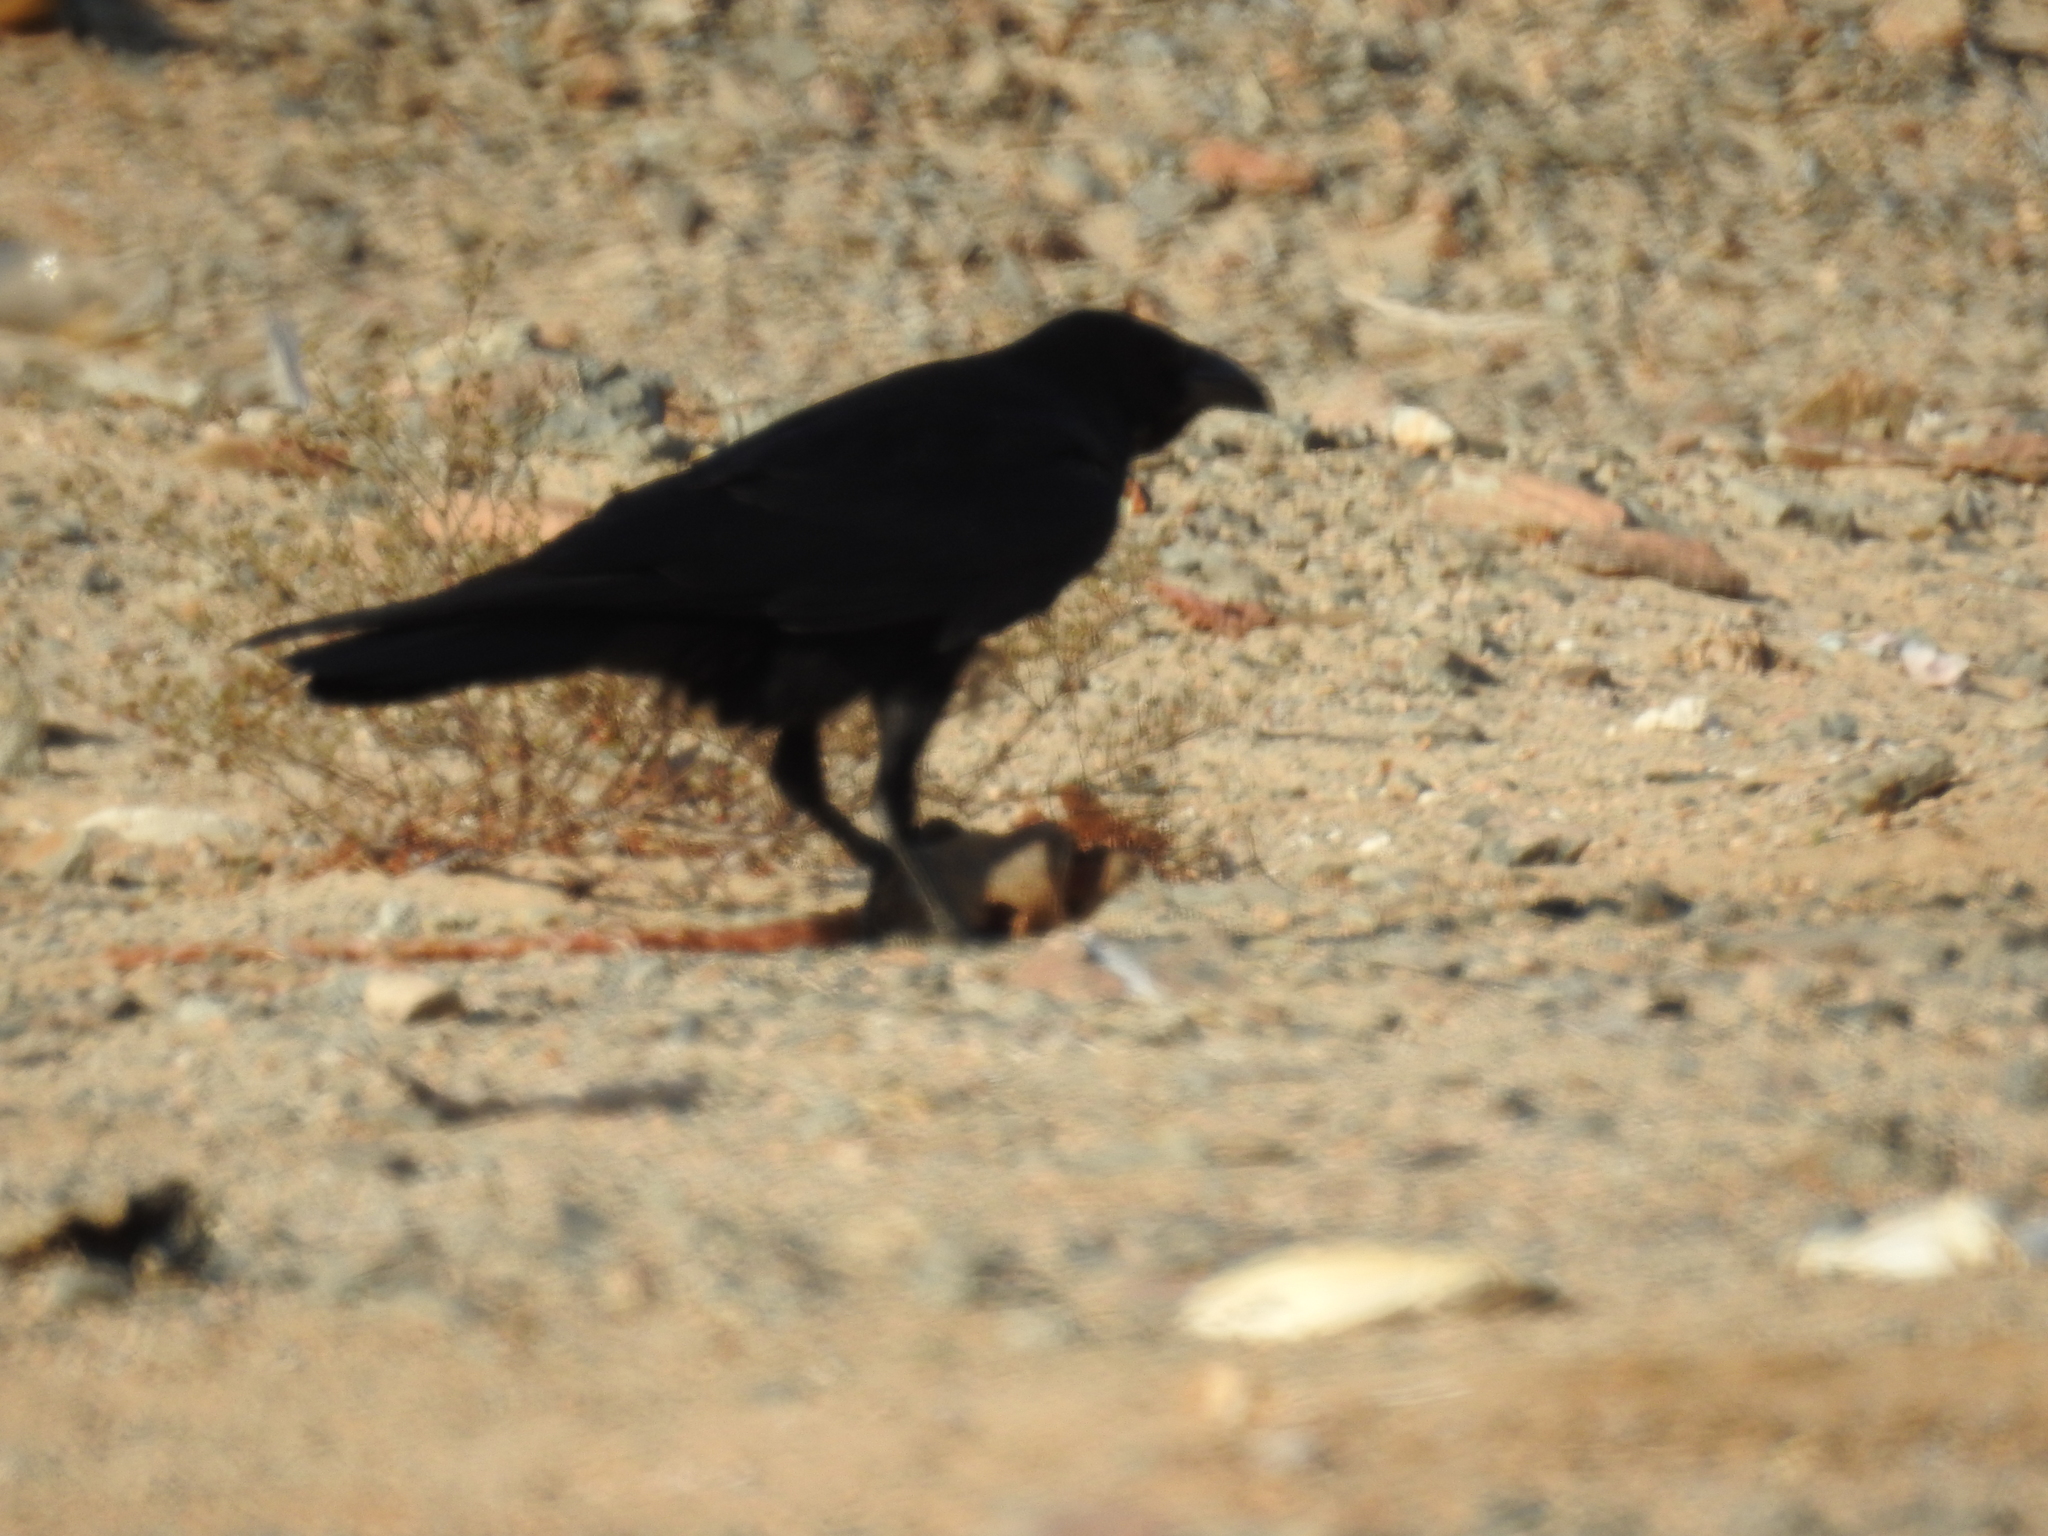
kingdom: Animalia
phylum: Chordata
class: Aves
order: Passeriformes
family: Corvidae
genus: Corvus
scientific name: Corvus corax
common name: Common raven
